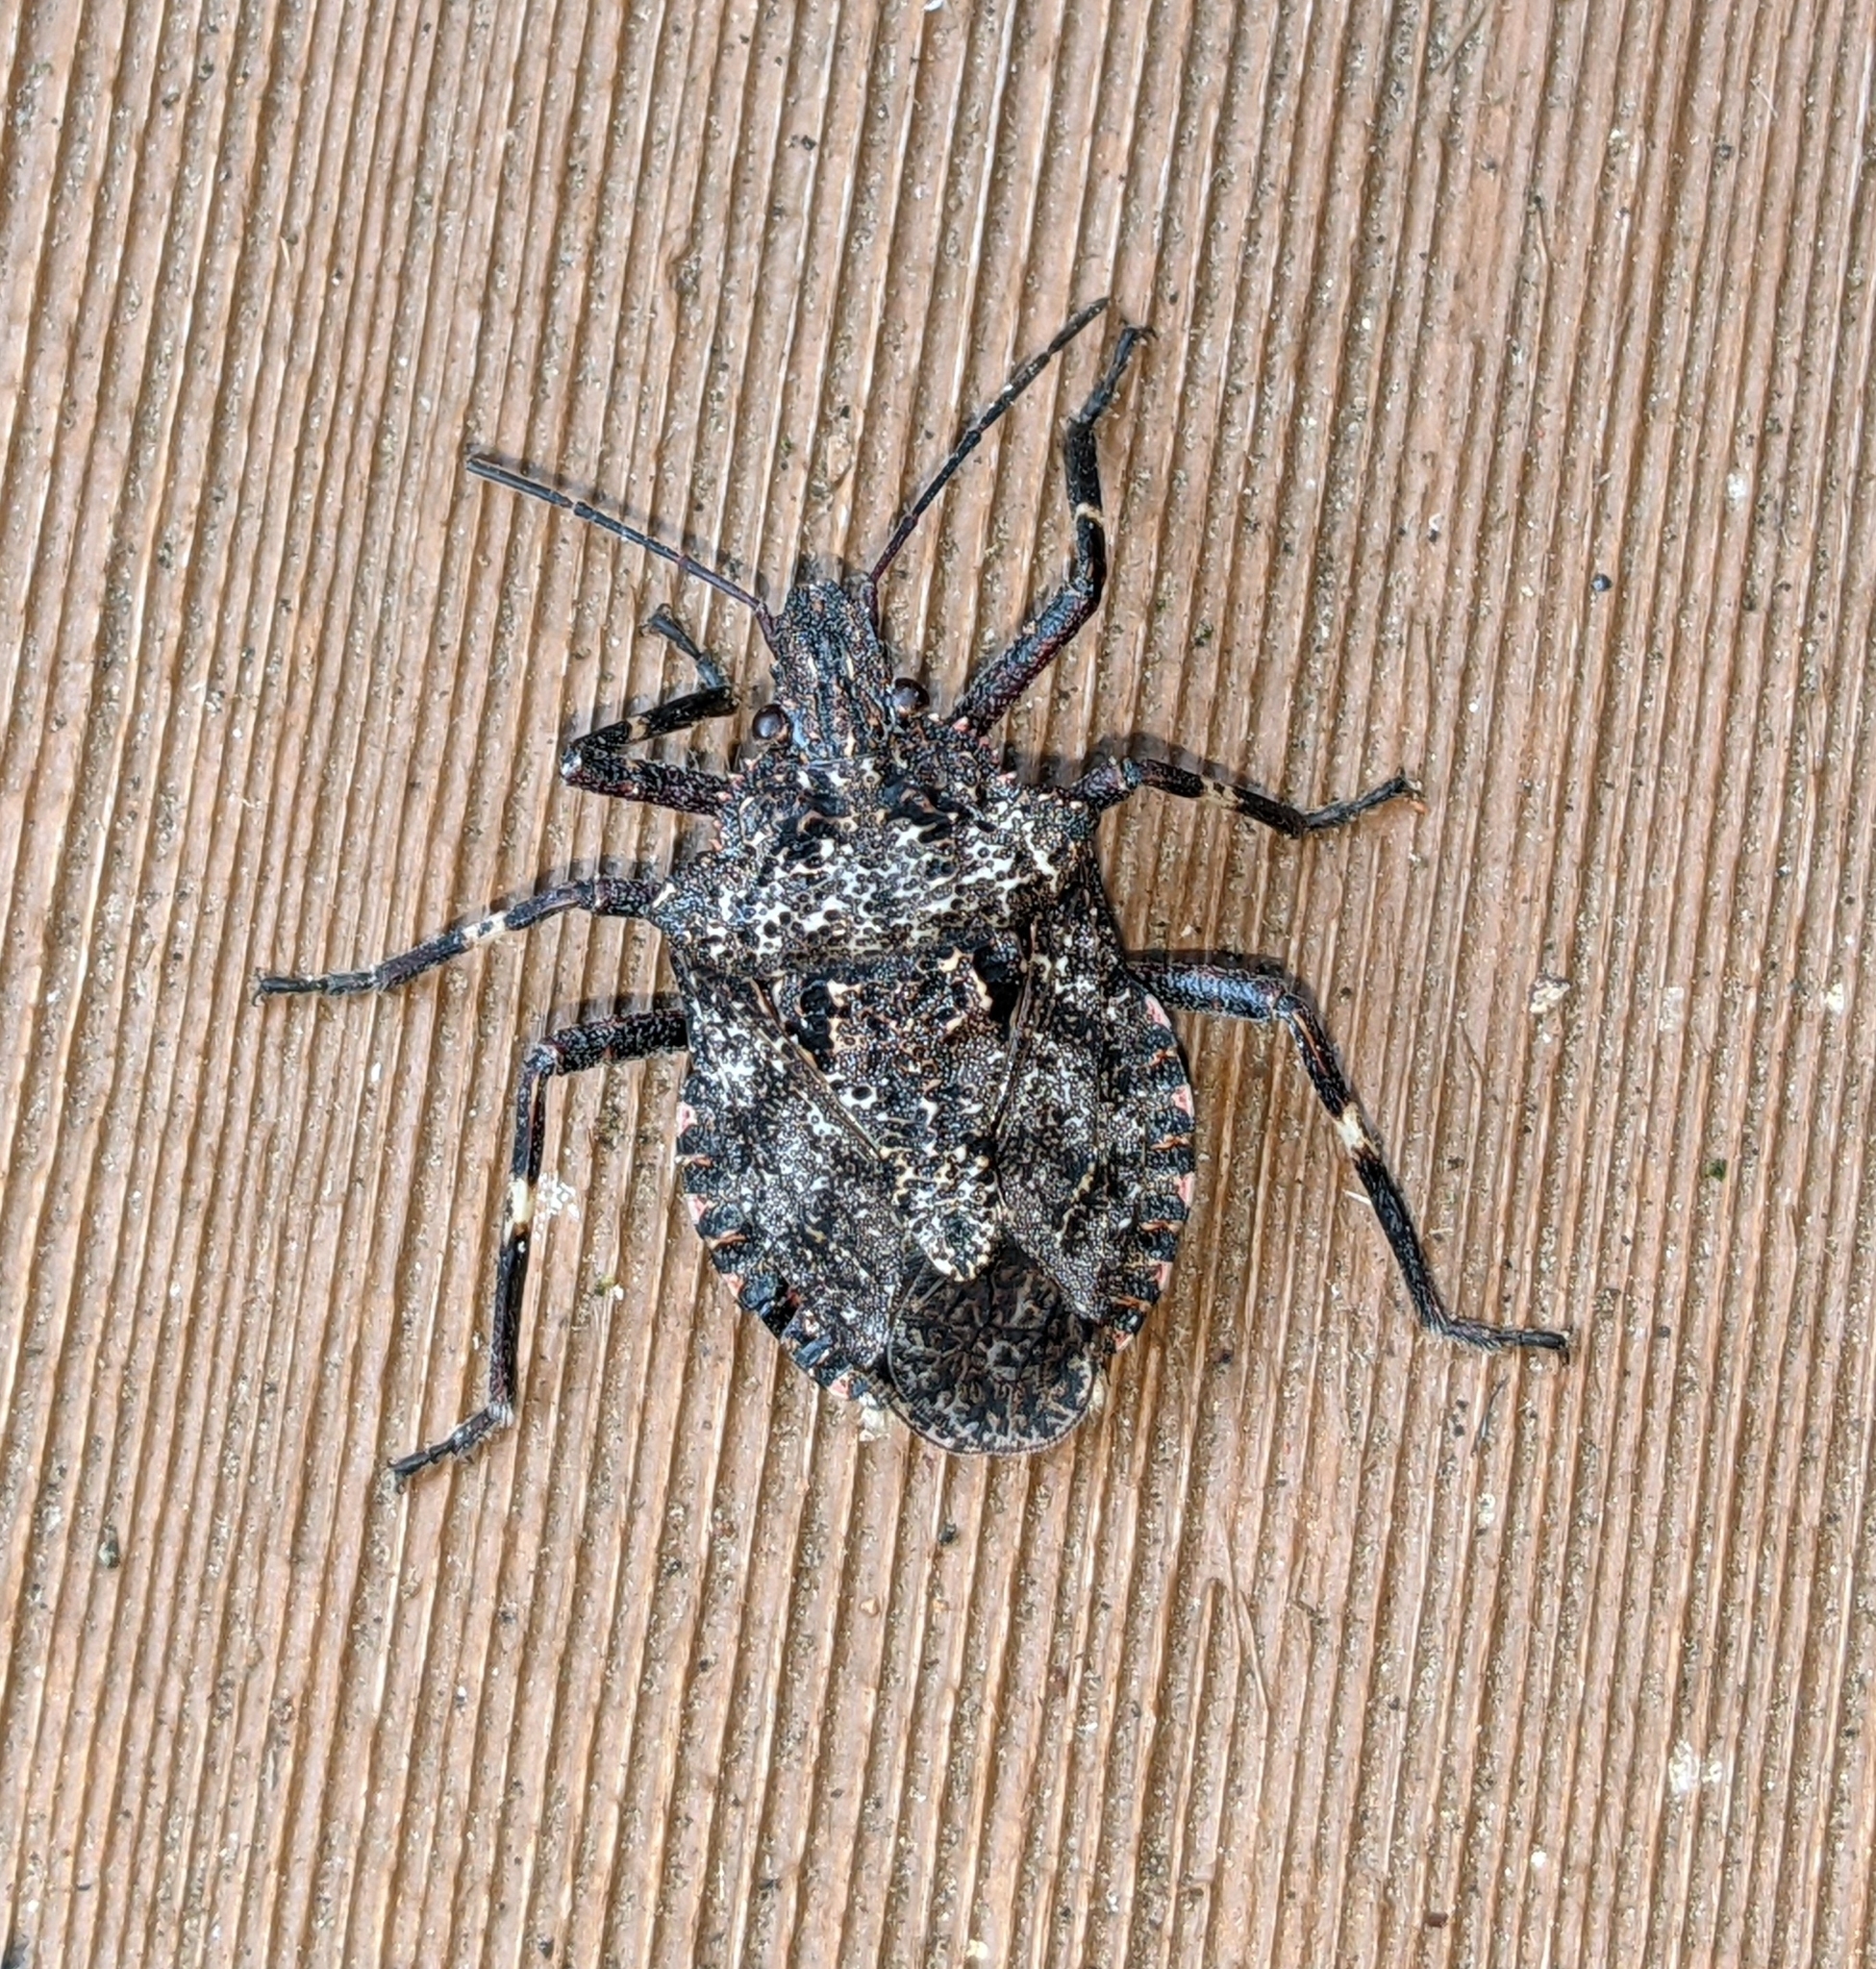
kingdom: Animalia
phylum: Arthropoda
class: Insecta
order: Hemiptera
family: Pentatomidae
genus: Brochymena
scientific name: Brochymena affinis
